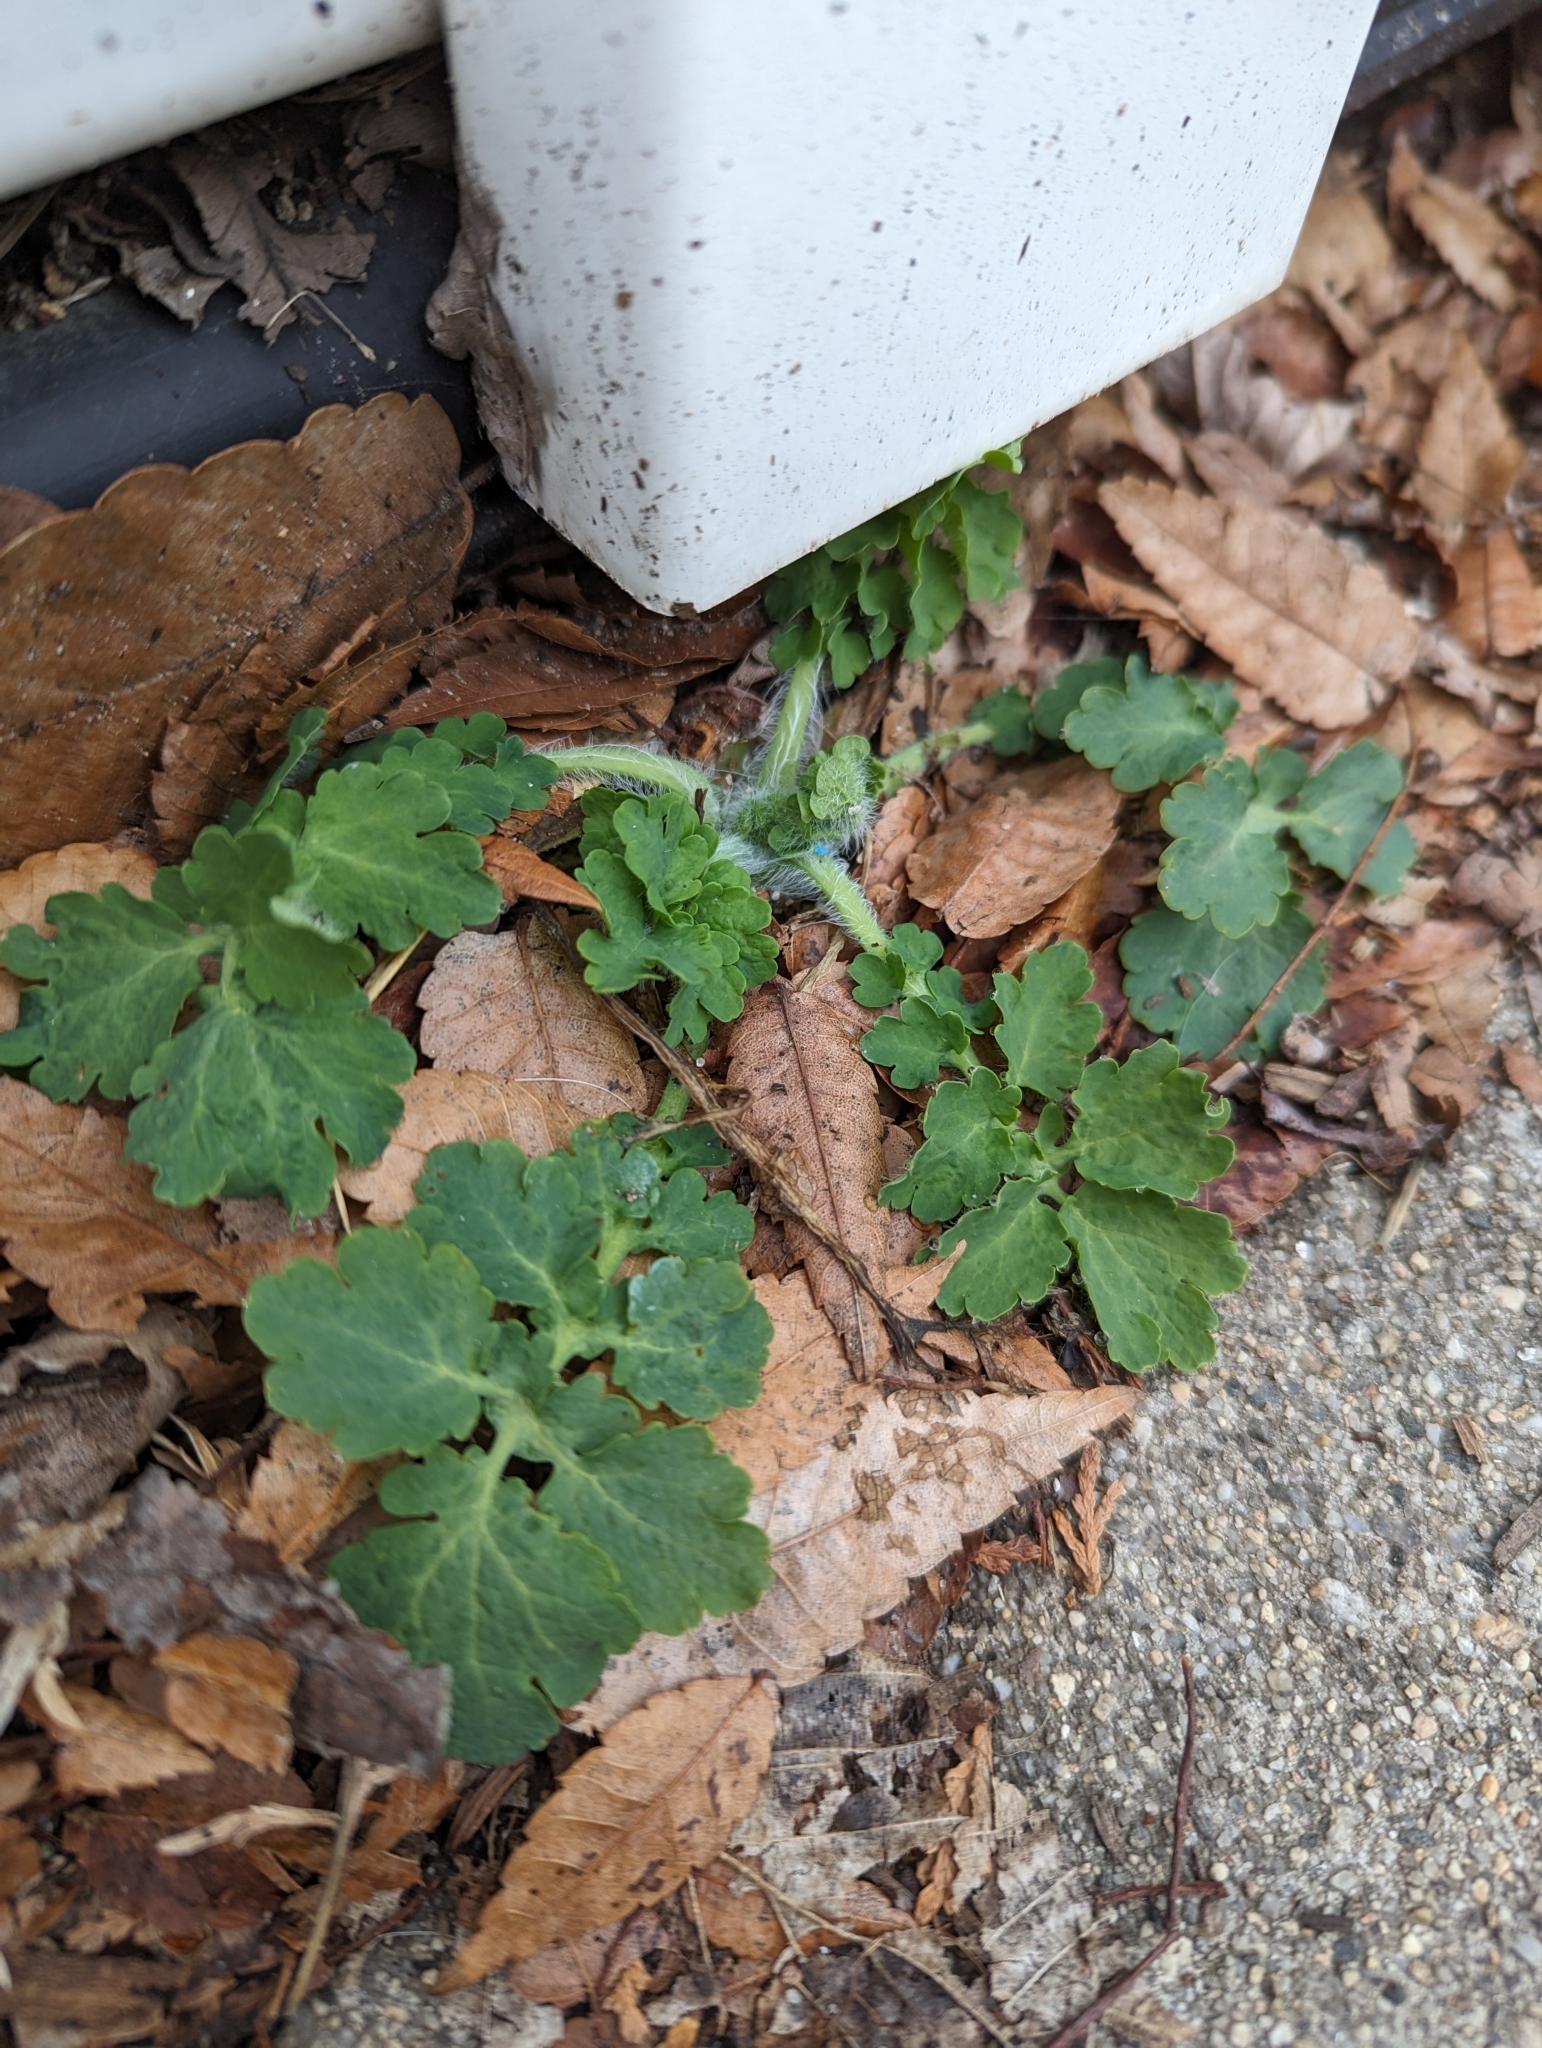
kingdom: Plantae
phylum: Tracheophyta
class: Magnoliopsida
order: Ranunculales
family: Papaveraceae
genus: Chelidonium
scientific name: Chelidonium majus
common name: Greater celandine
